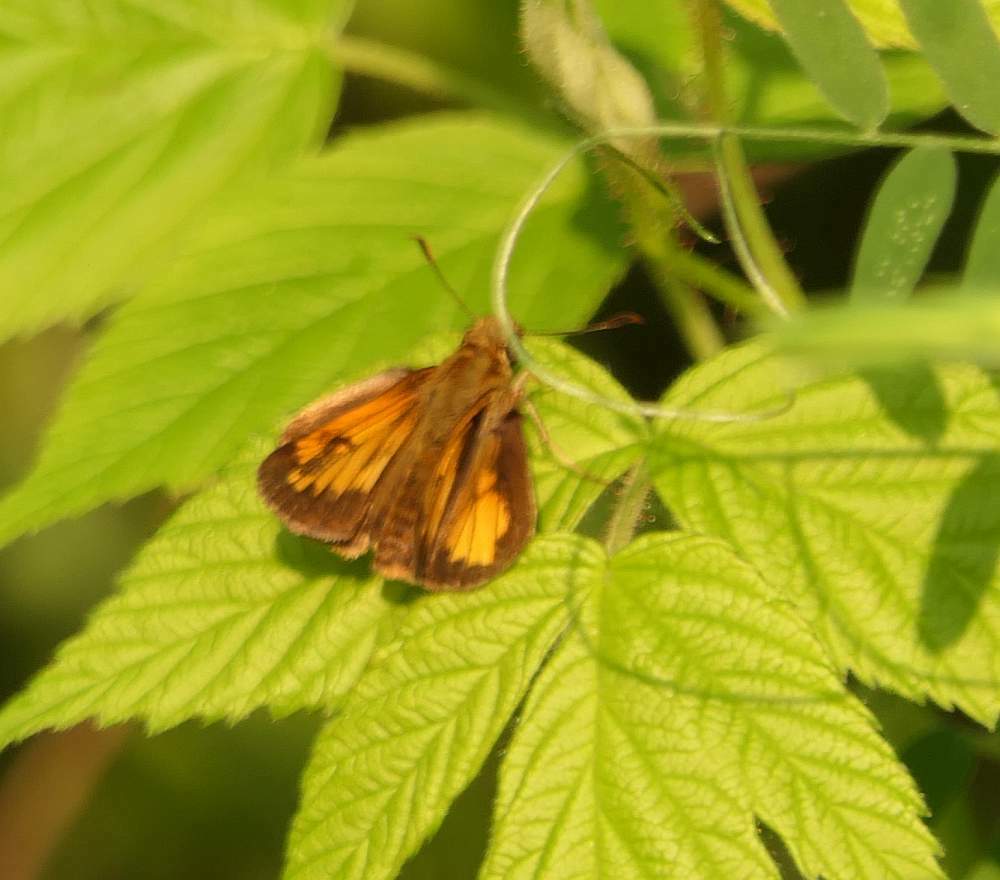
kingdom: Animalia
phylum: Arthropoda
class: Insecta
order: Lepidoptera
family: Hesperiidae
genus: Lon
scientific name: Lon hobomok
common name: Hobomok skipper
